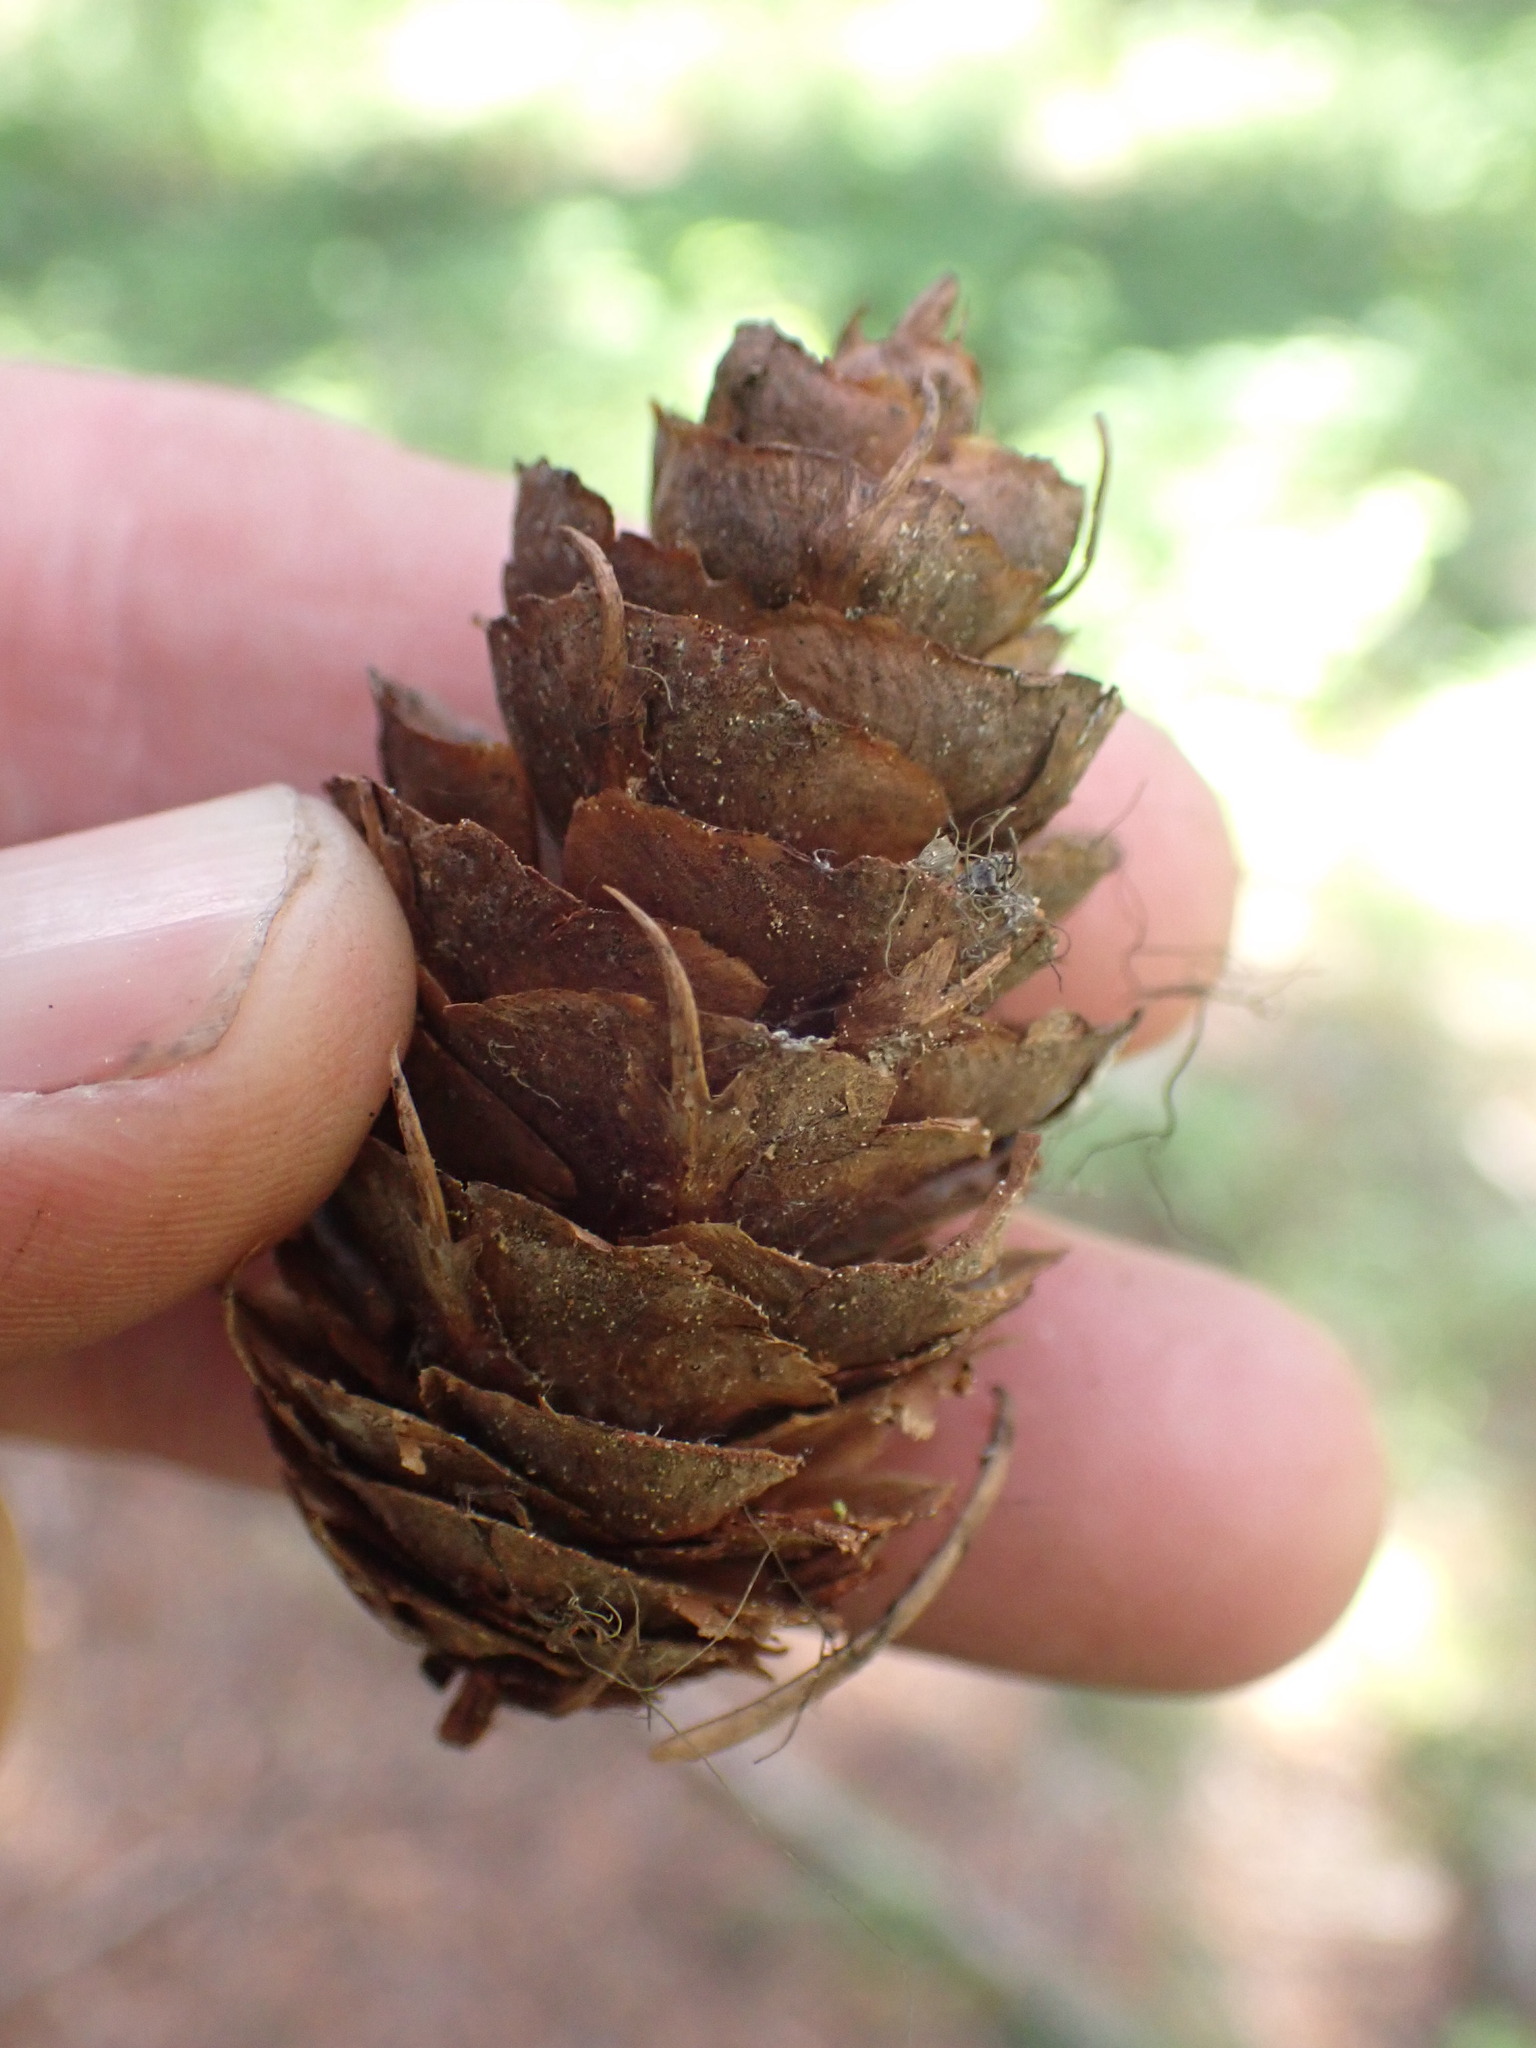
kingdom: Plantae
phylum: Tracheophyta
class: Pinopsida
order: Pinales
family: Pinaceae
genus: Pseudotsuga
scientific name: Pseudotsuga menziesii
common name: Douglas fir
